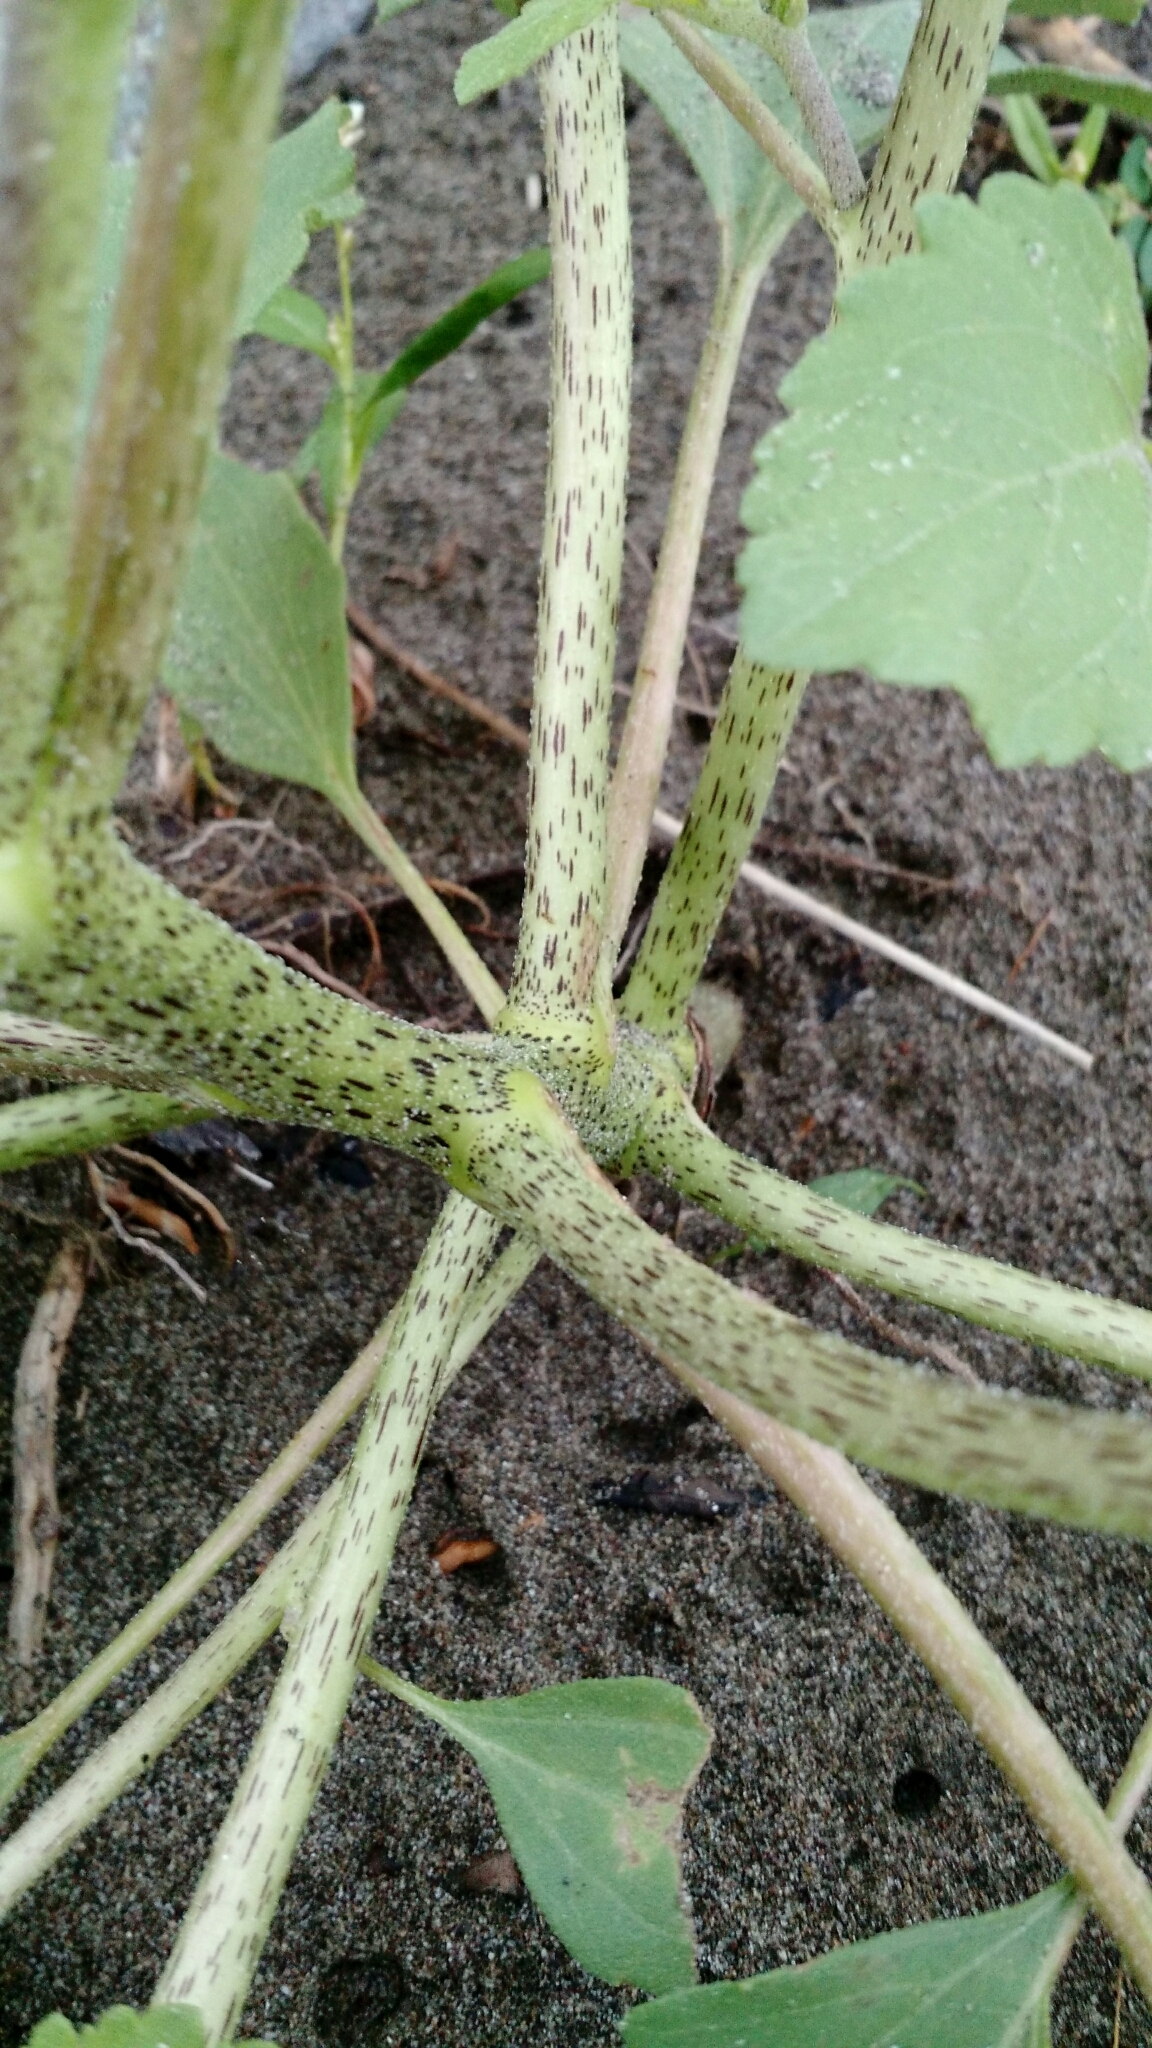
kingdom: Plantae
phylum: Tracheophyta
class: Magnoliopsida
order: Asterales
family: Asteraceae
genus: Xanthium
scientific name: Xanthium strumarium
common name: Rough cocklebur
